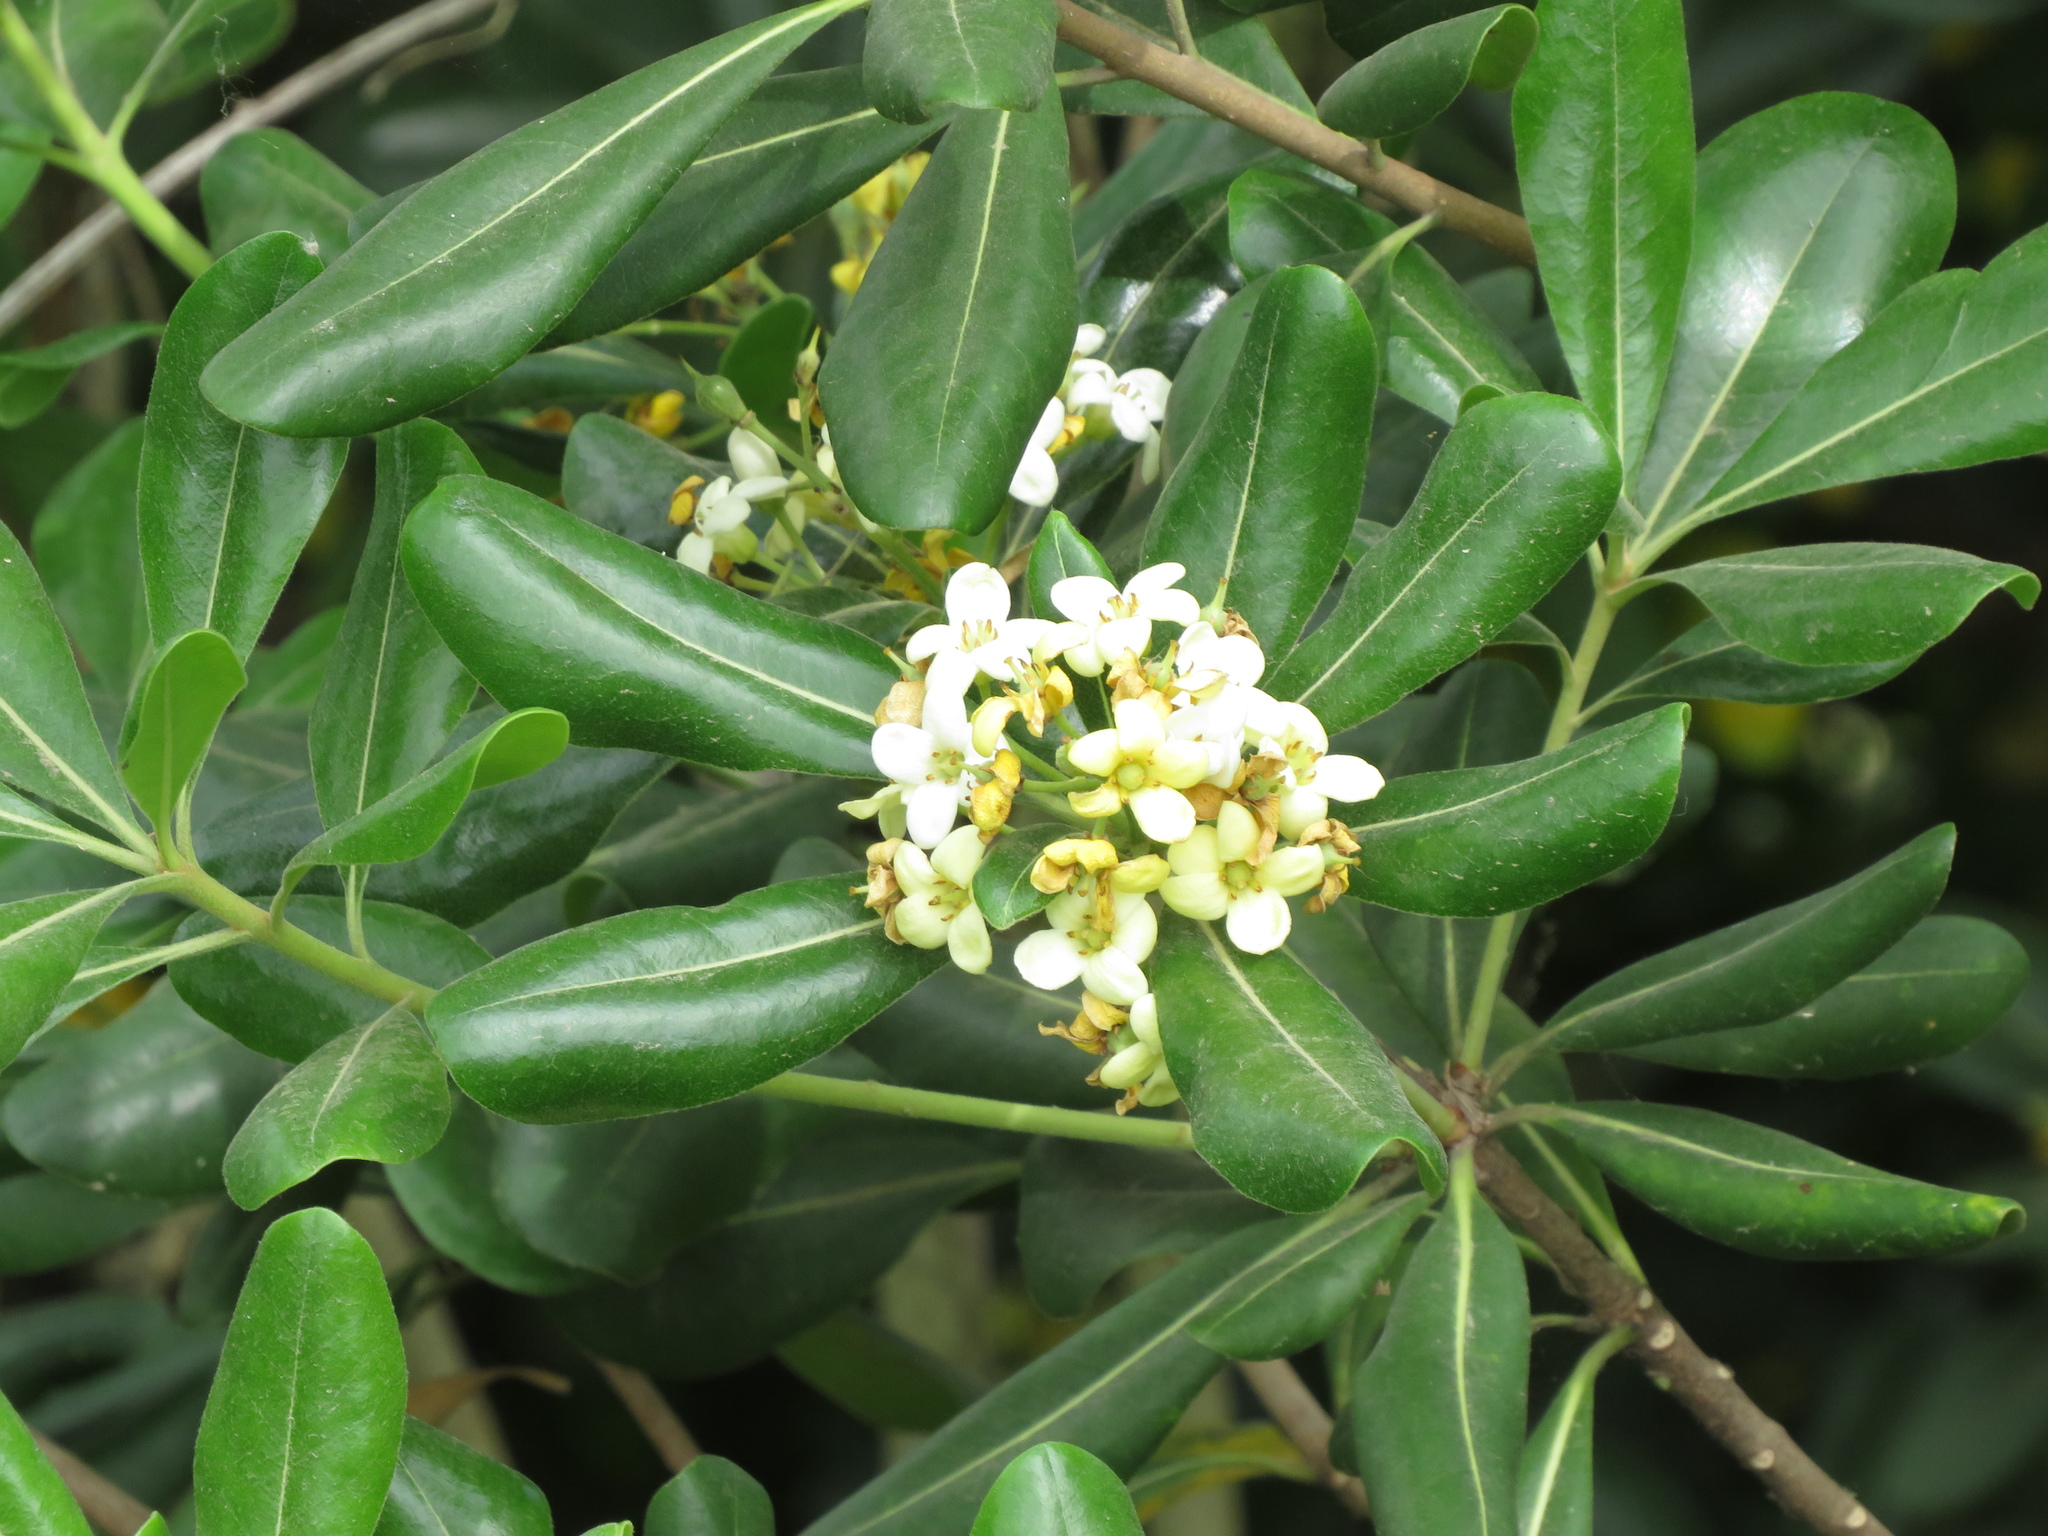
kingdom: Plantae
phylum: Tracheophyta
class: Magnoliopsida
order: Apiales
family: Pittosporaceae
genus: Pittosporum
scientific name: Pittosporum tobira
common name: Japanese cheesewood
